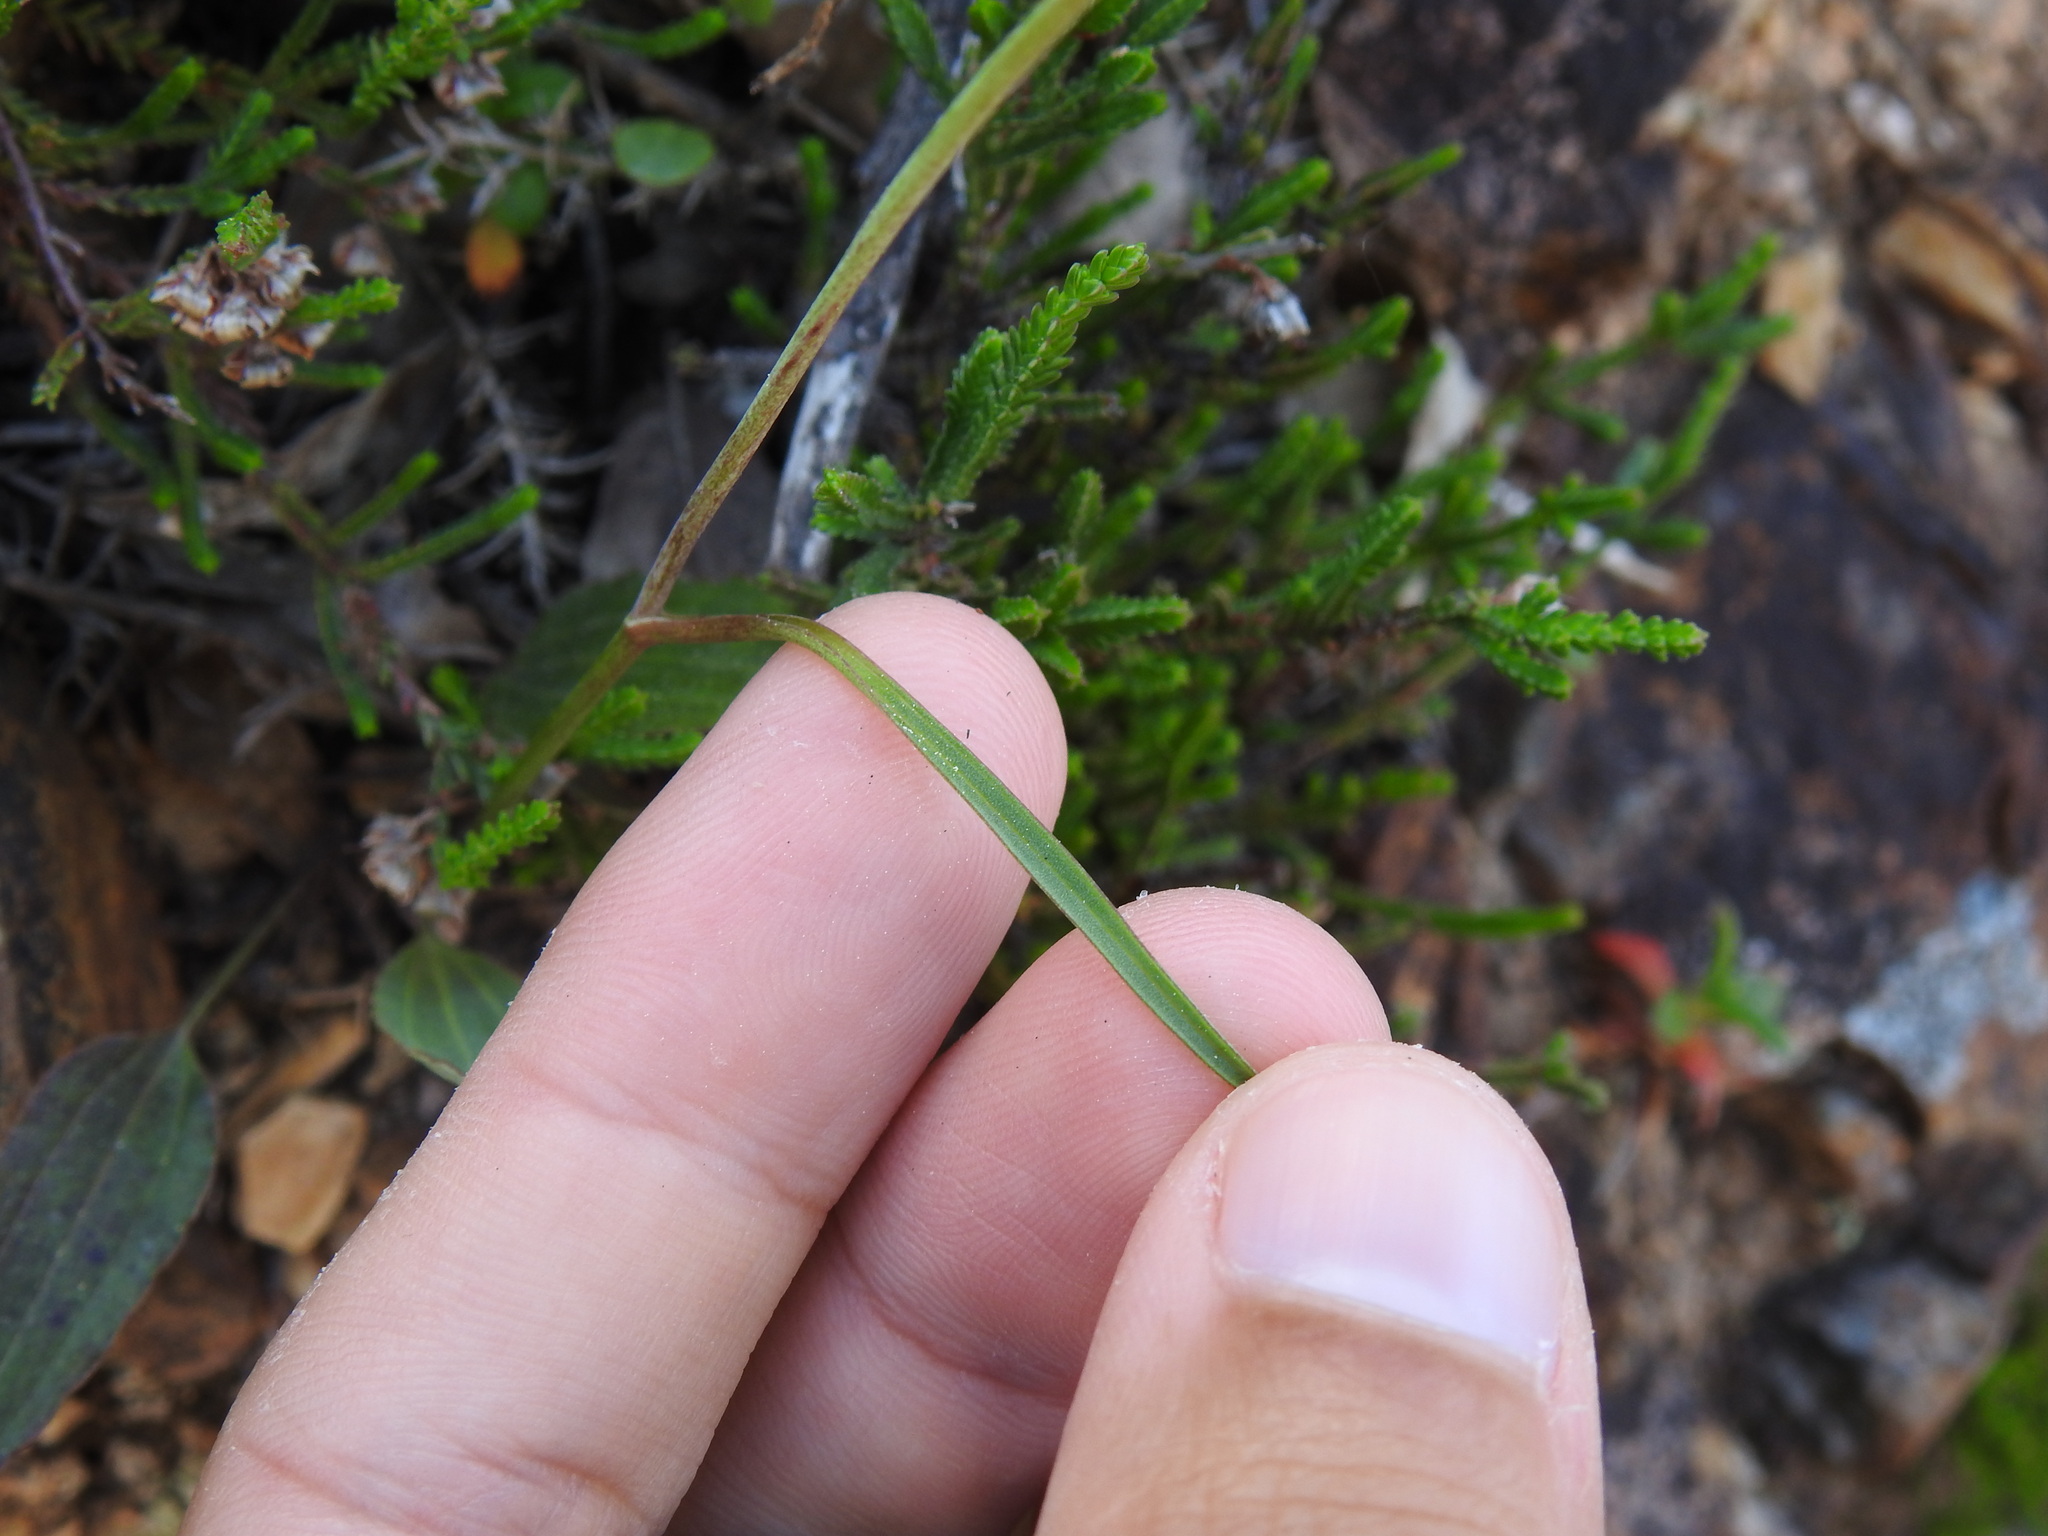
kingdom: Plantae
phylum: Tracheophyta
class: Magnoliopsida
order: Ranunculales
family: Ranunculaceae
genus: Ranunculus
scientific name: Ranunculus bupleuroides
